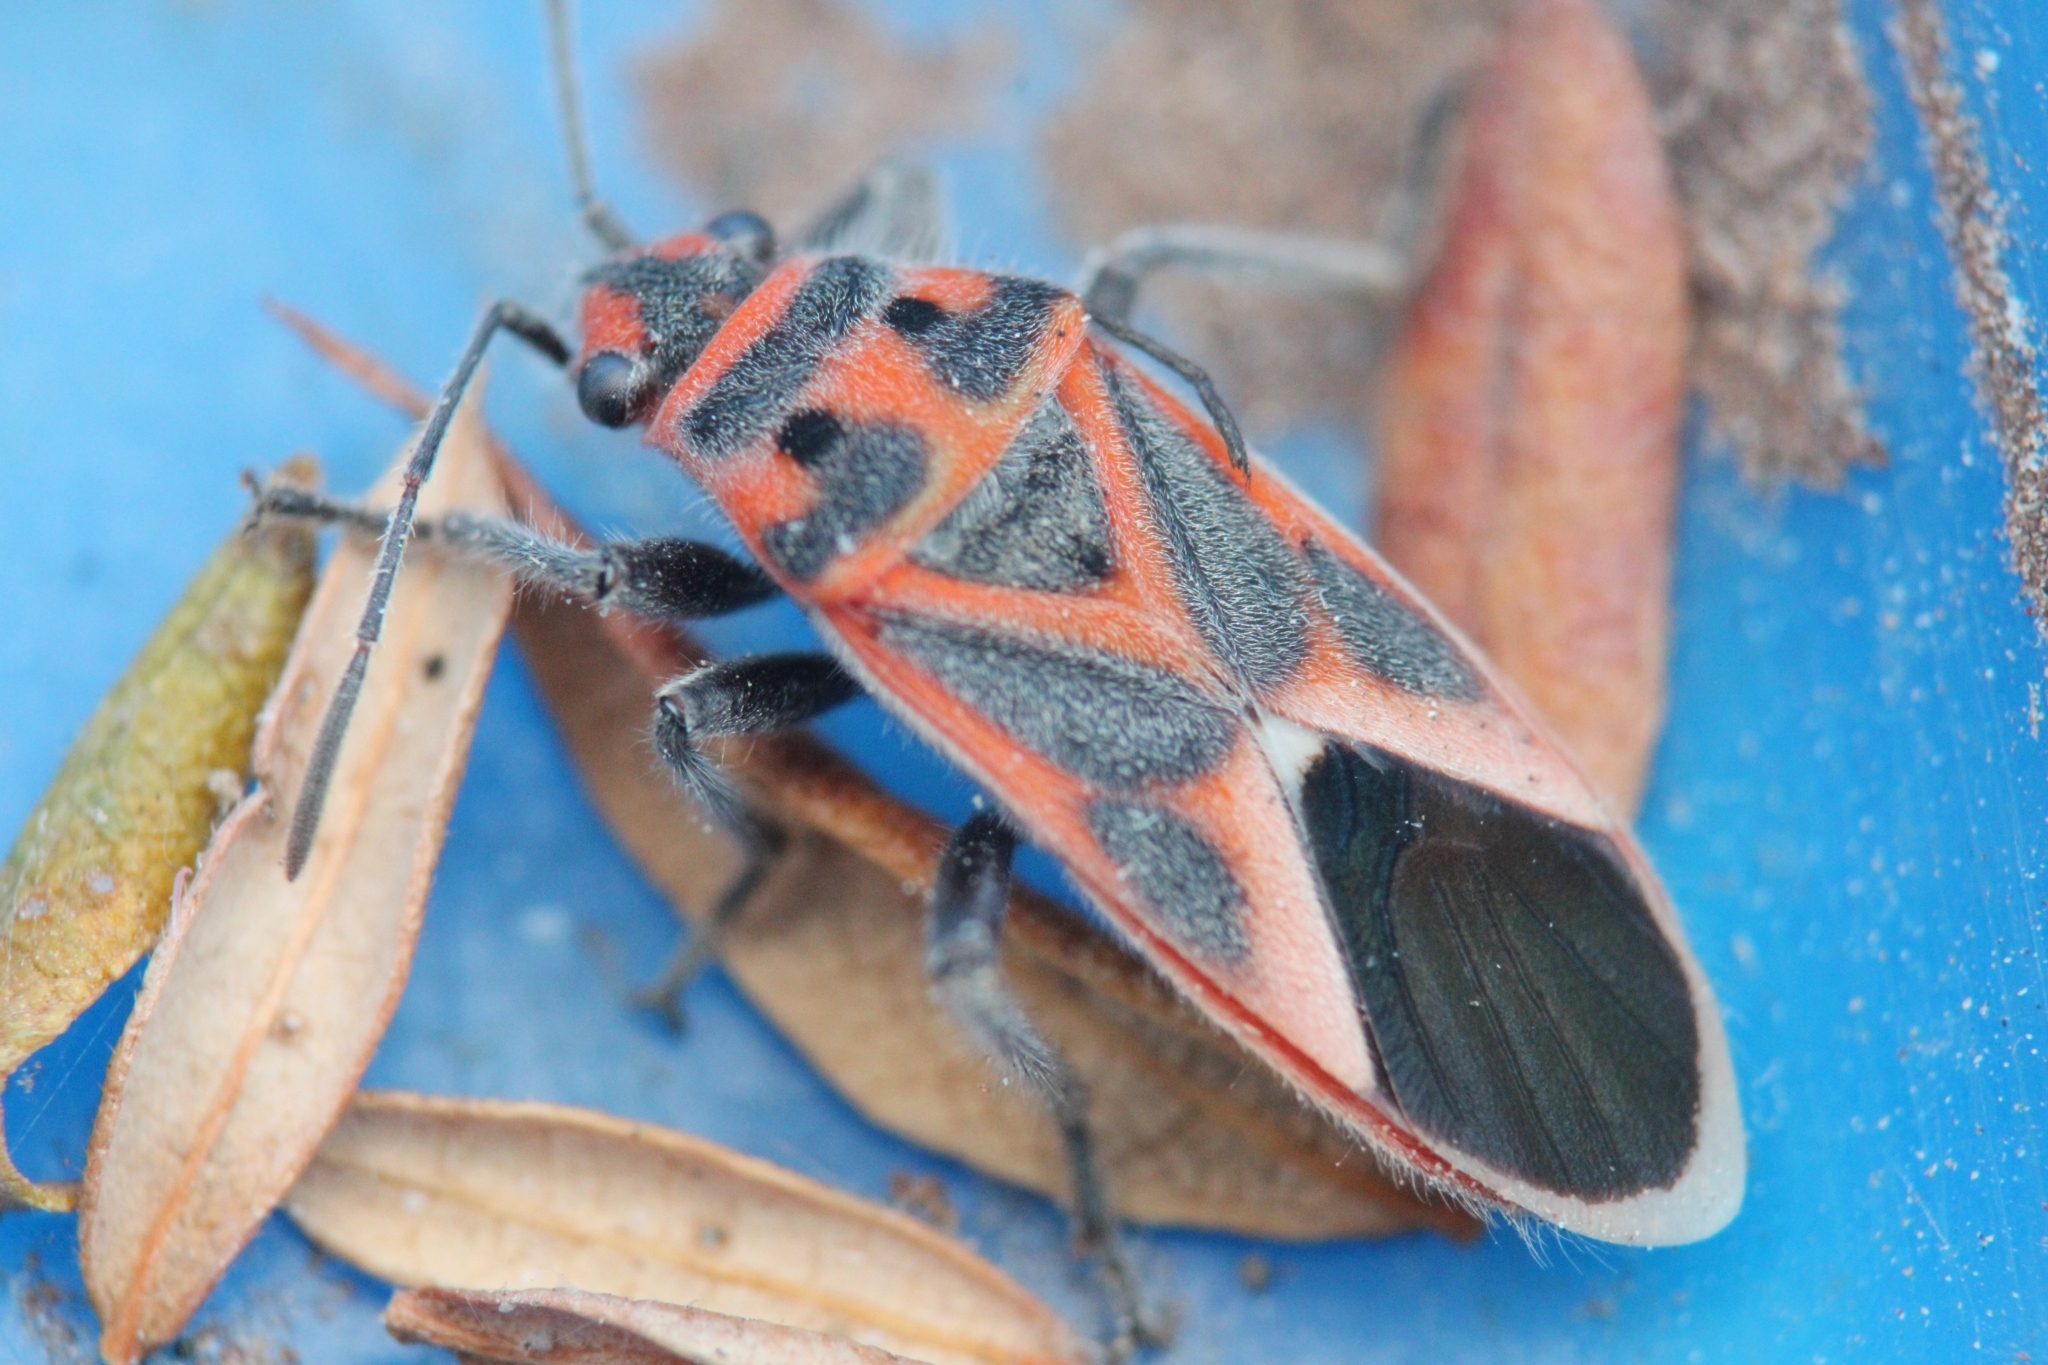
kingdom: Animalia
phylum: Arthropoda
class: Insecta
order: Hemiptera
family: Lygaeidae
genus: Graptostethus
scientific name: Graptostethus servus
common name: Lygaeid bug
